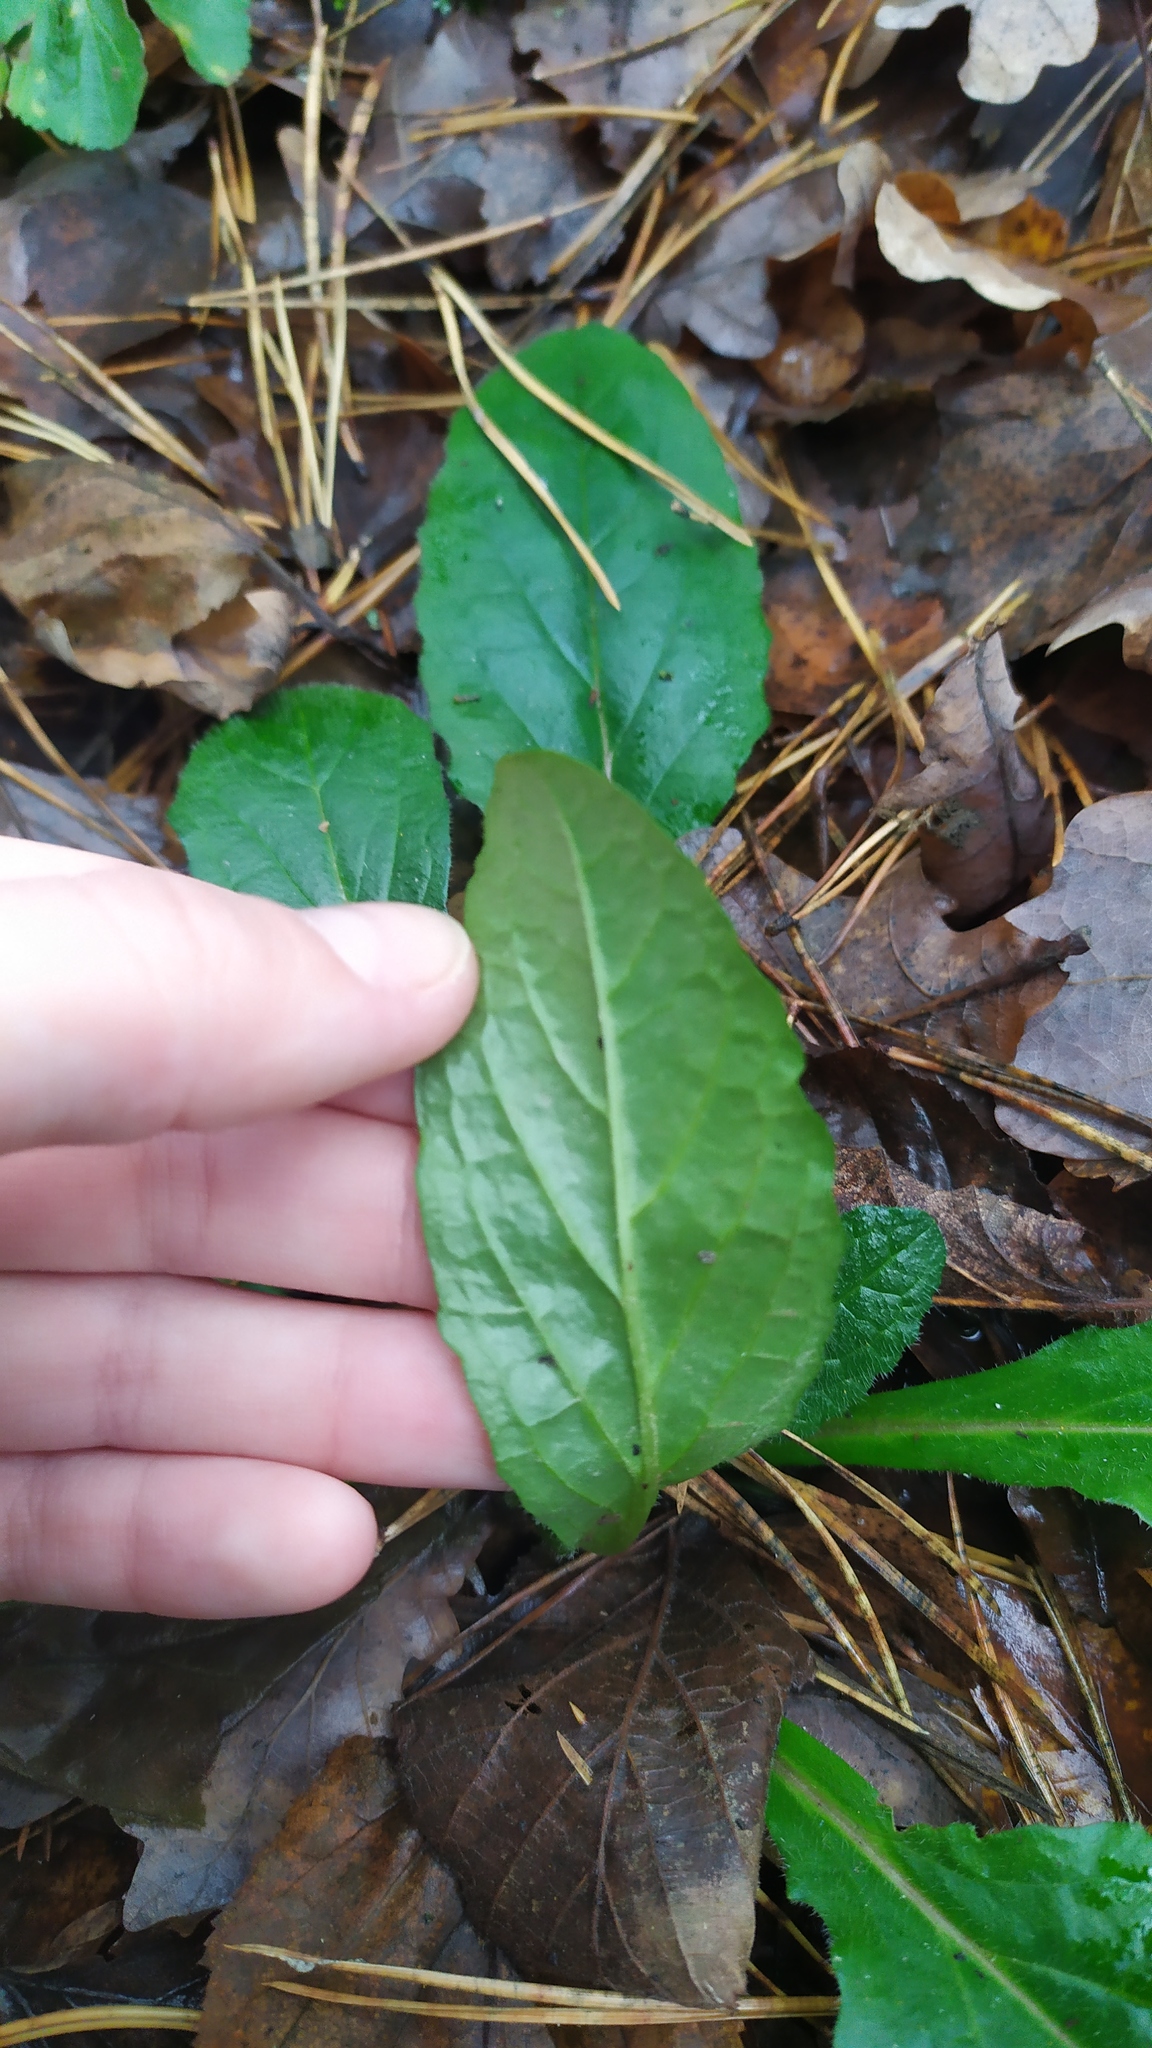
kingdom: Plantae
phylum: Tracheophyta
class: Magnoliopsida
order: Lamiales
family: Lamiaceae
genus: Ajuga
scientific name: Ajuga reptans
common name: Bugle
